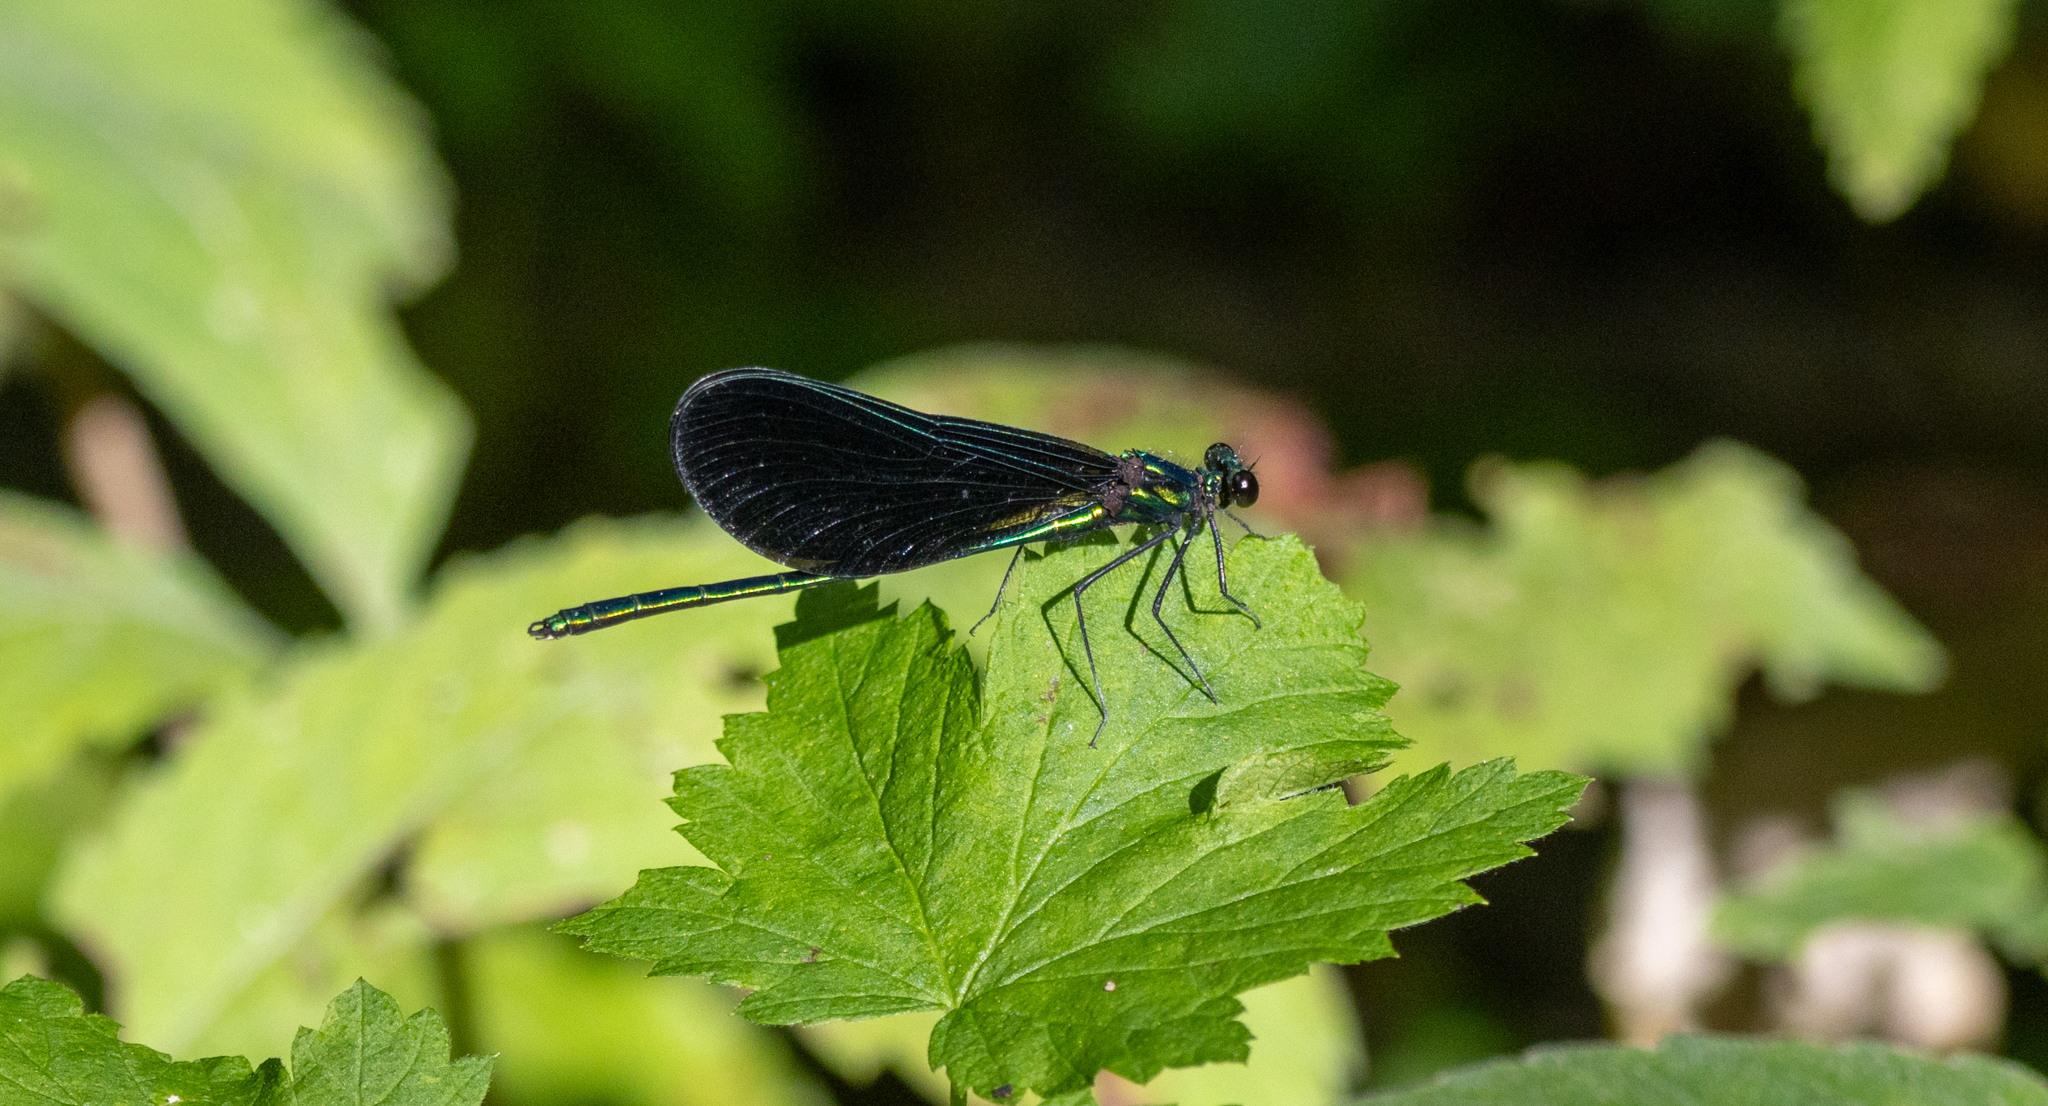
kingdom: Animalia
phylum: Arthropoda
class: Insecta
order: Odonata
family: Calopterygidae
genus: Calopteryx
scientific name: Calopteryx maculata
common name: Ebony jewelwing
